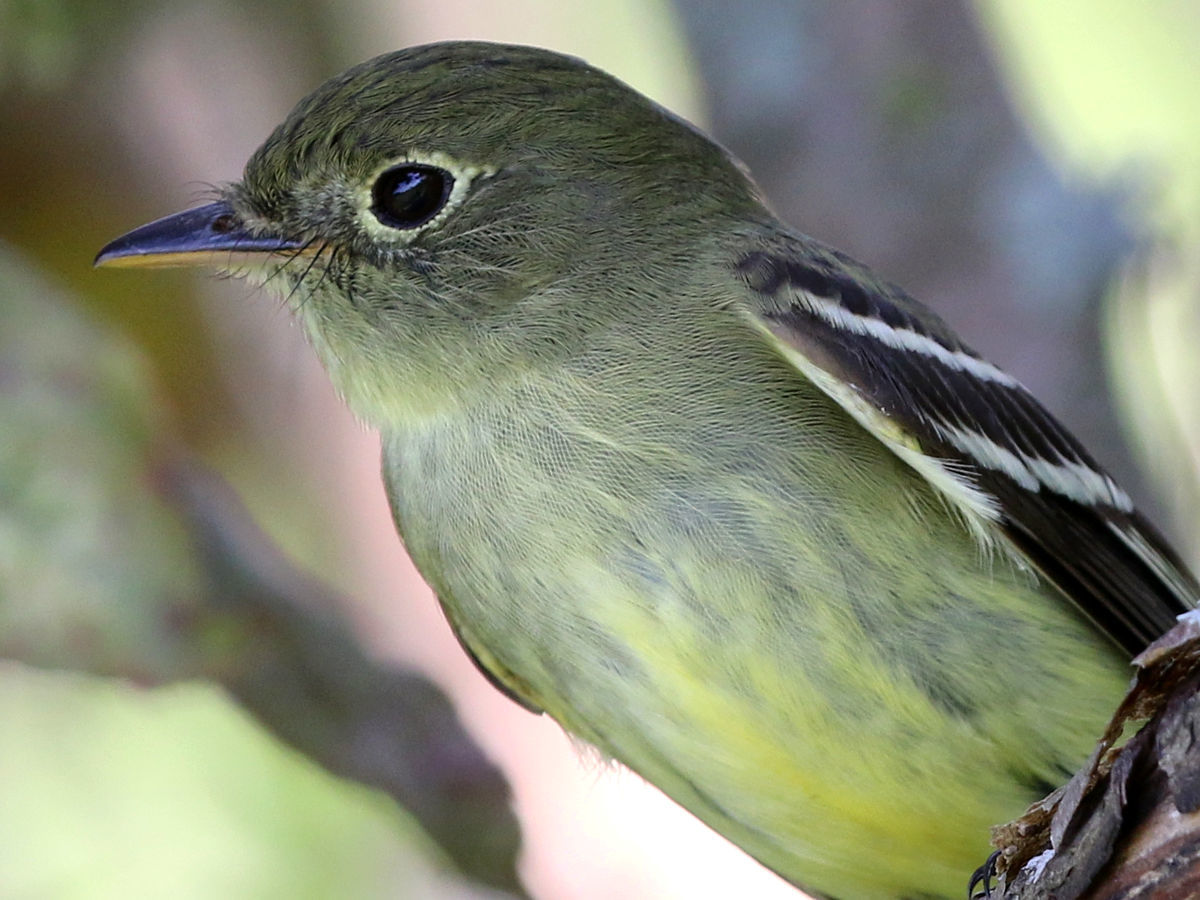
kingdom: Animalia
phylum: Chordata
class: Aves
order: Passeriformes
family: Tyrannidae
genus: Empidonax
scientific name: Empidonax flaviventris
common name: Yellow-bellied flycatcher
